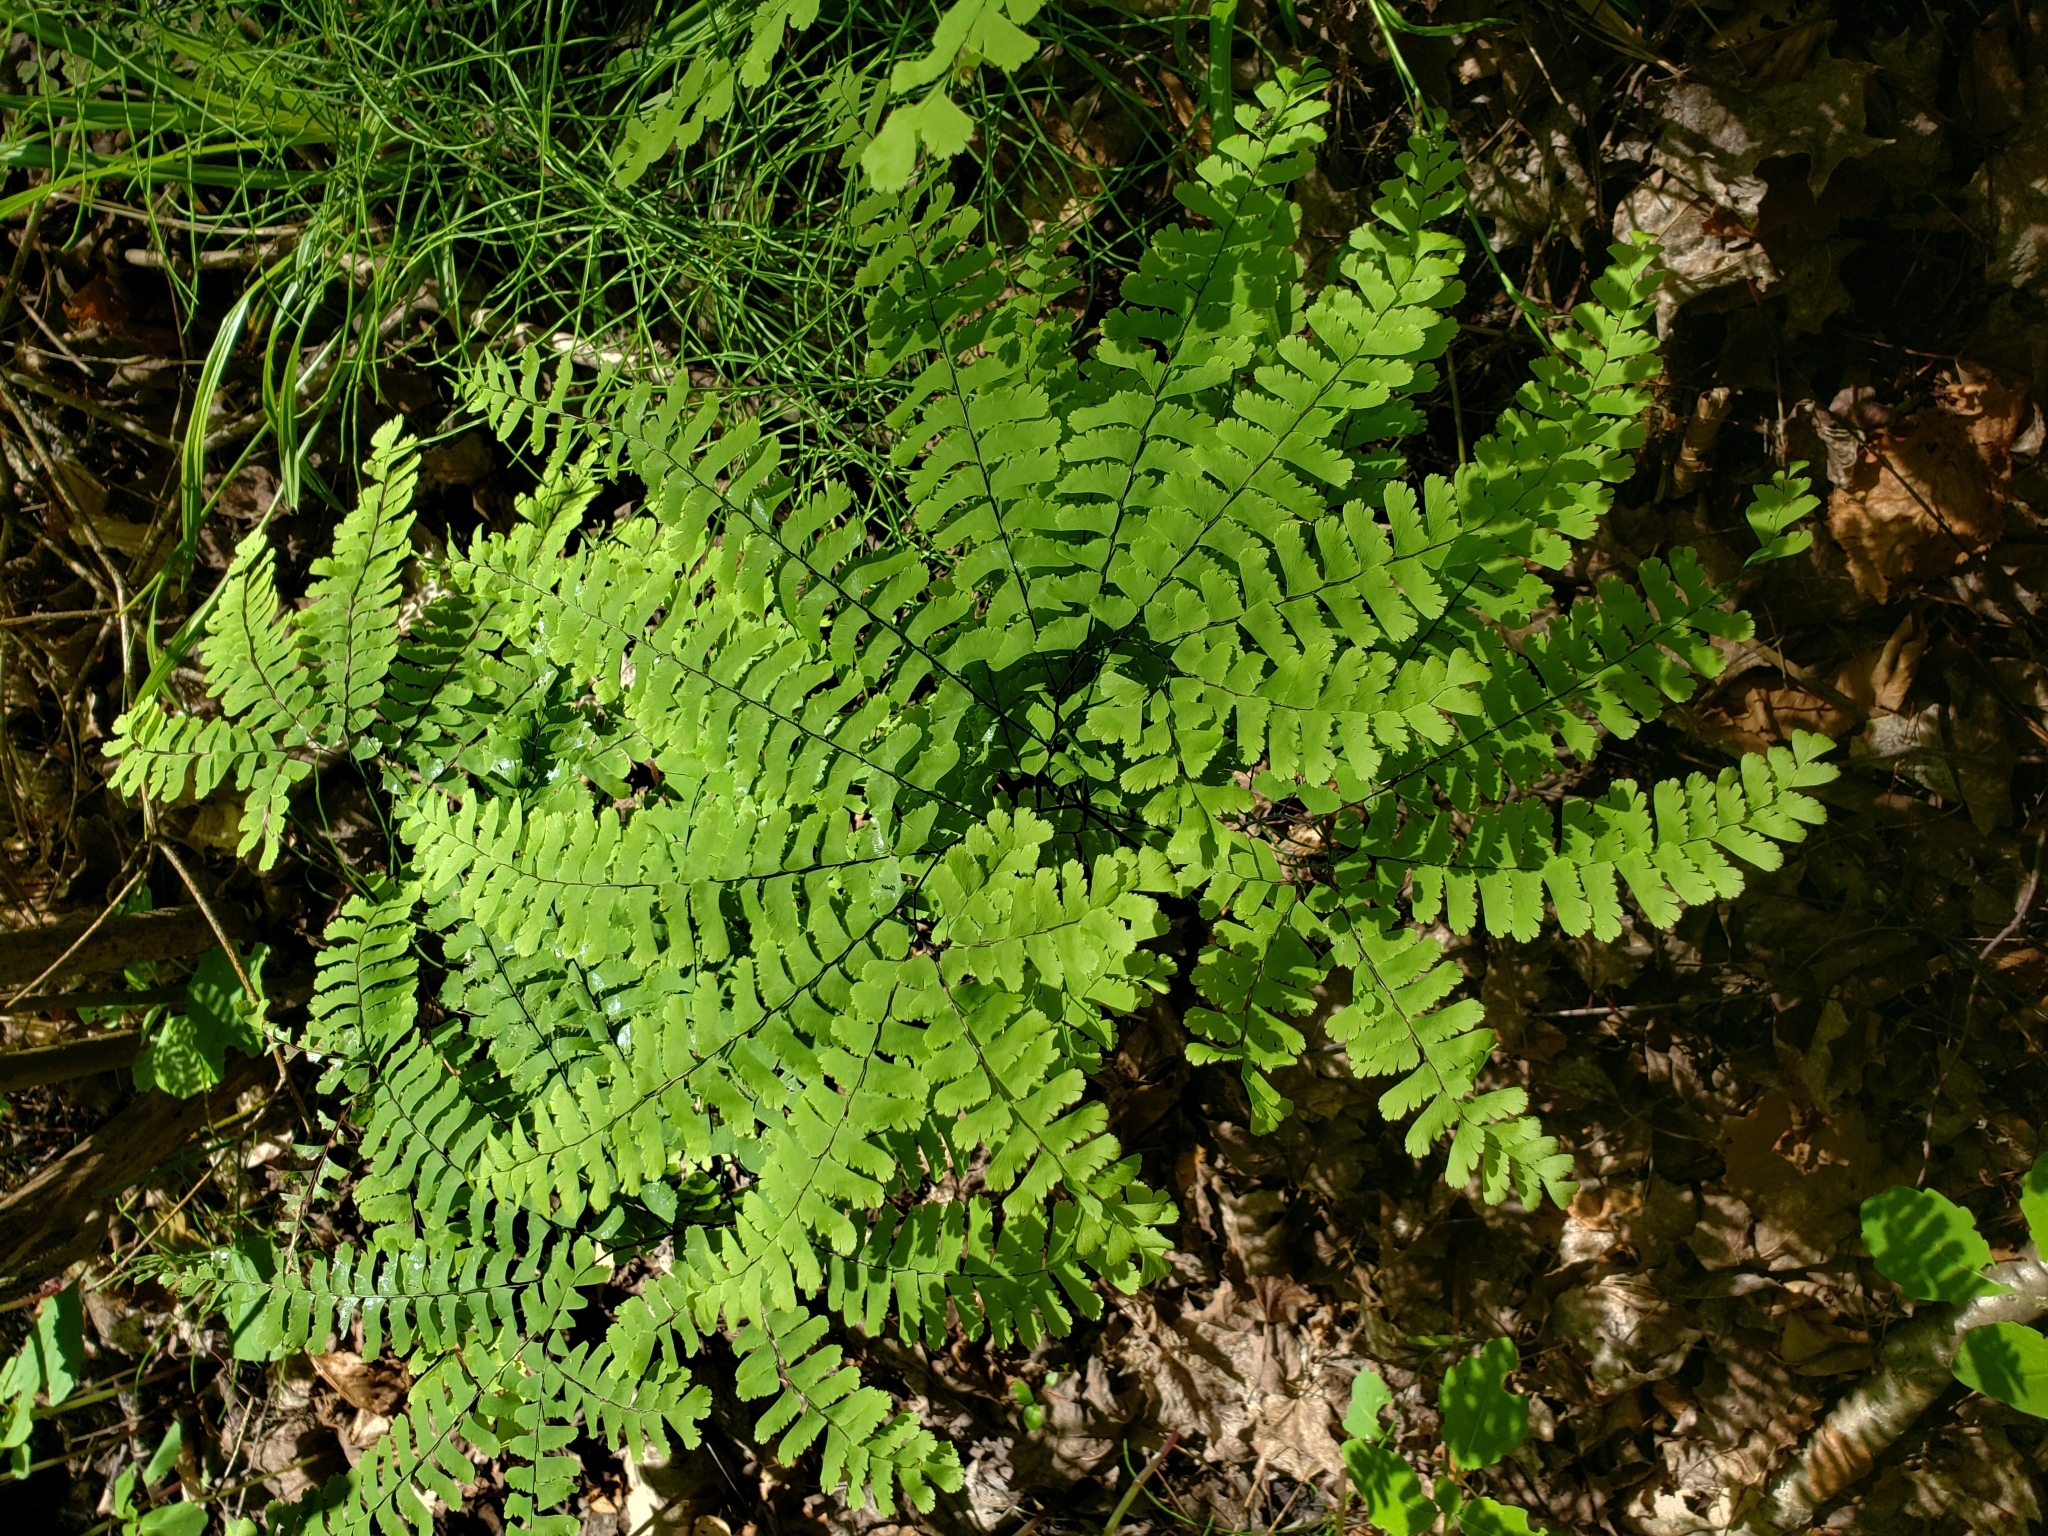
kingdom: Plantae
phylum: Tracheophyta
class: Polypodiopsida
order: Polypodiales
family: Pteridaceae
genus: Adiantum
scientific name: Adiantum pedatum
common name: Five-finger fern
